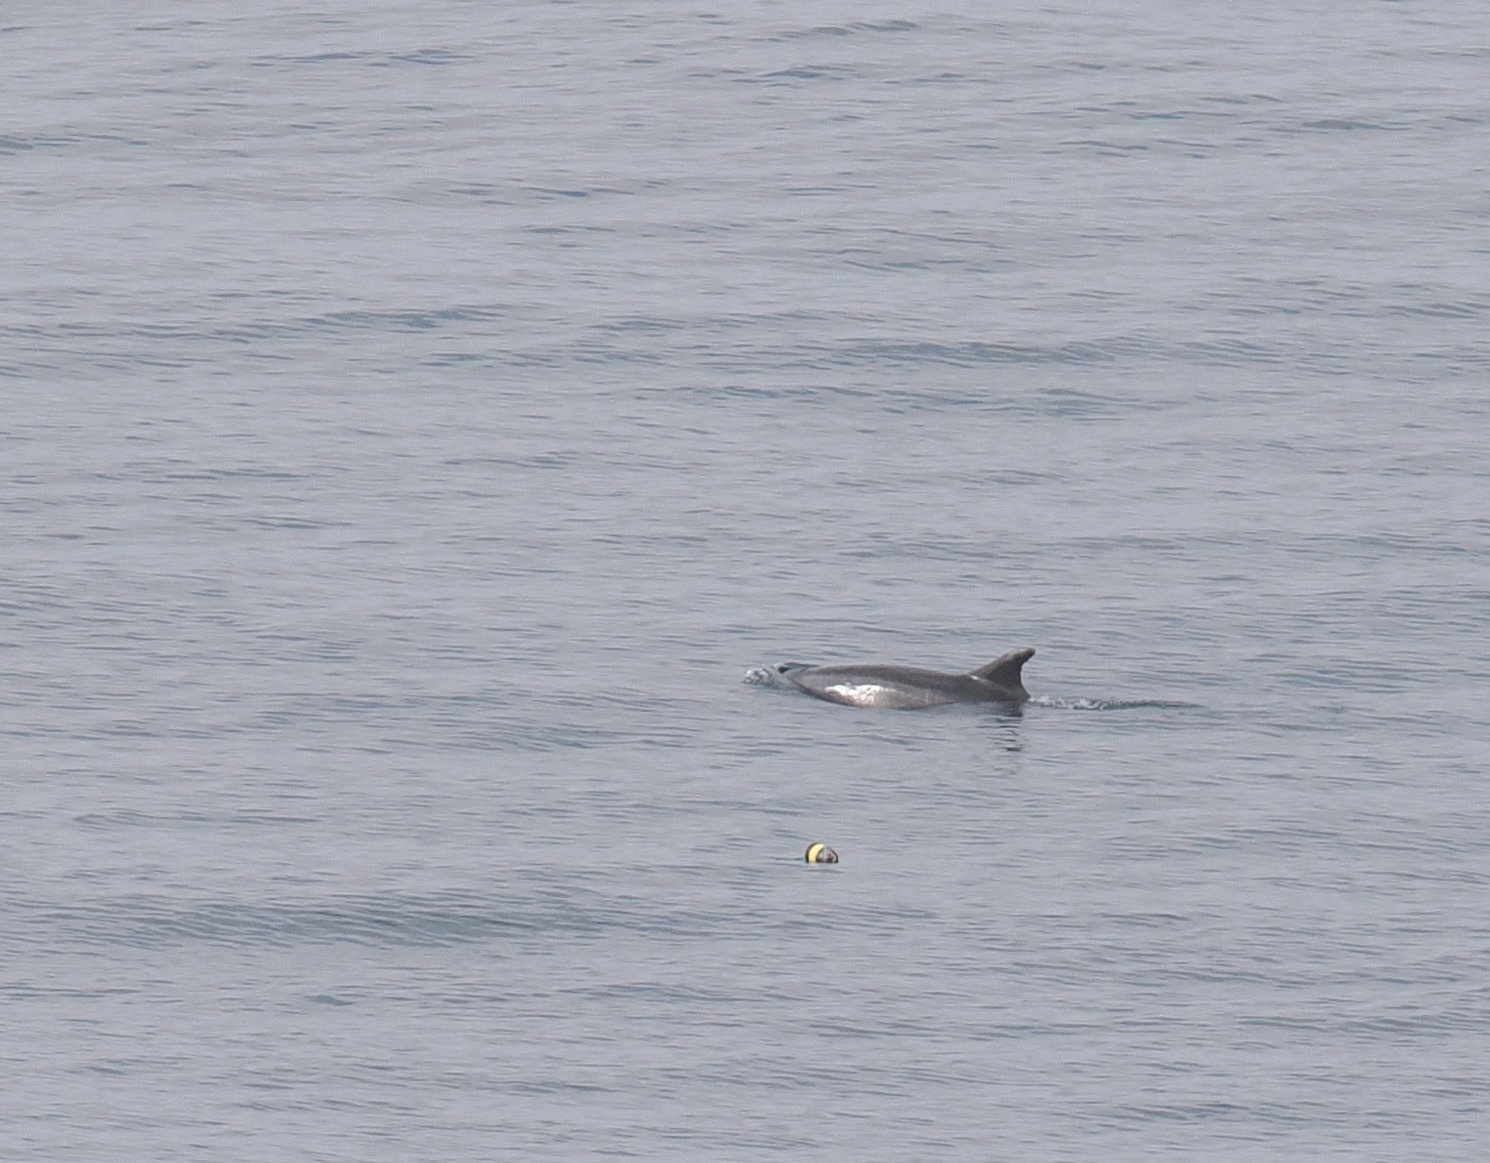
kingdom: Animalia
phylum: Chordata
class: Mammalia
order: Cetacea
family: Delphinidae
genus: Tursiops
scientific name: Tursiops truncatus
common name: Bottlenose dolphin
